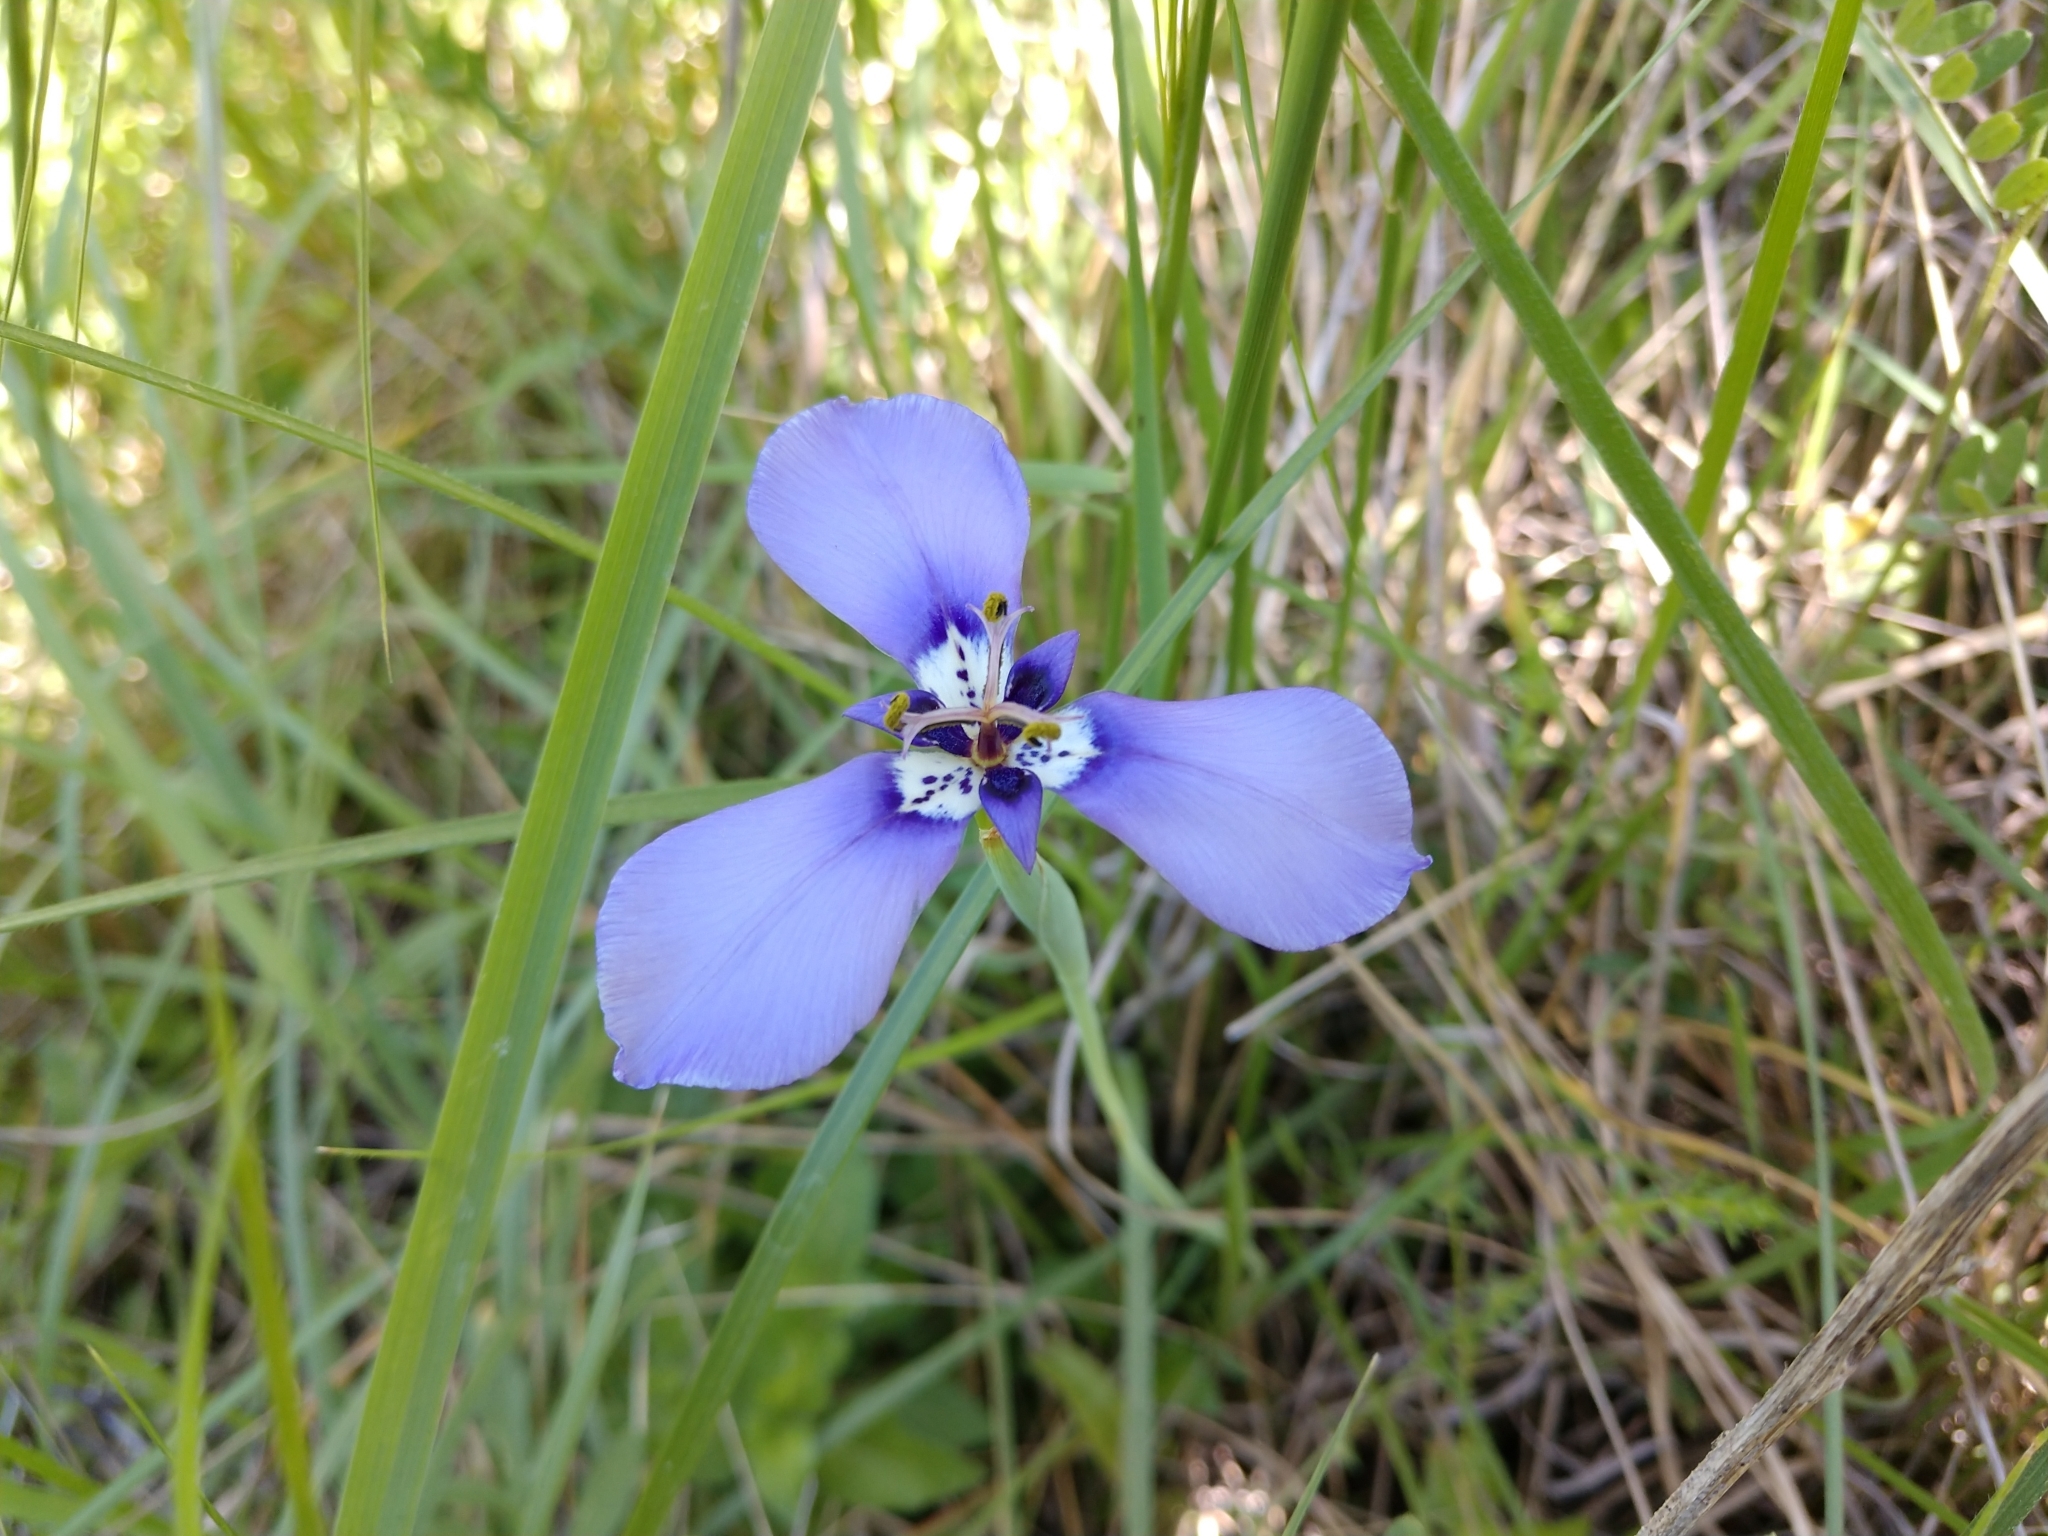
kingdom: Plantae
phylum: Tracheophyta
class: Liliopsida
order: Asparagales
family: Iridaceae
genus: Herbertia
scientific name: Herbertia lahue
